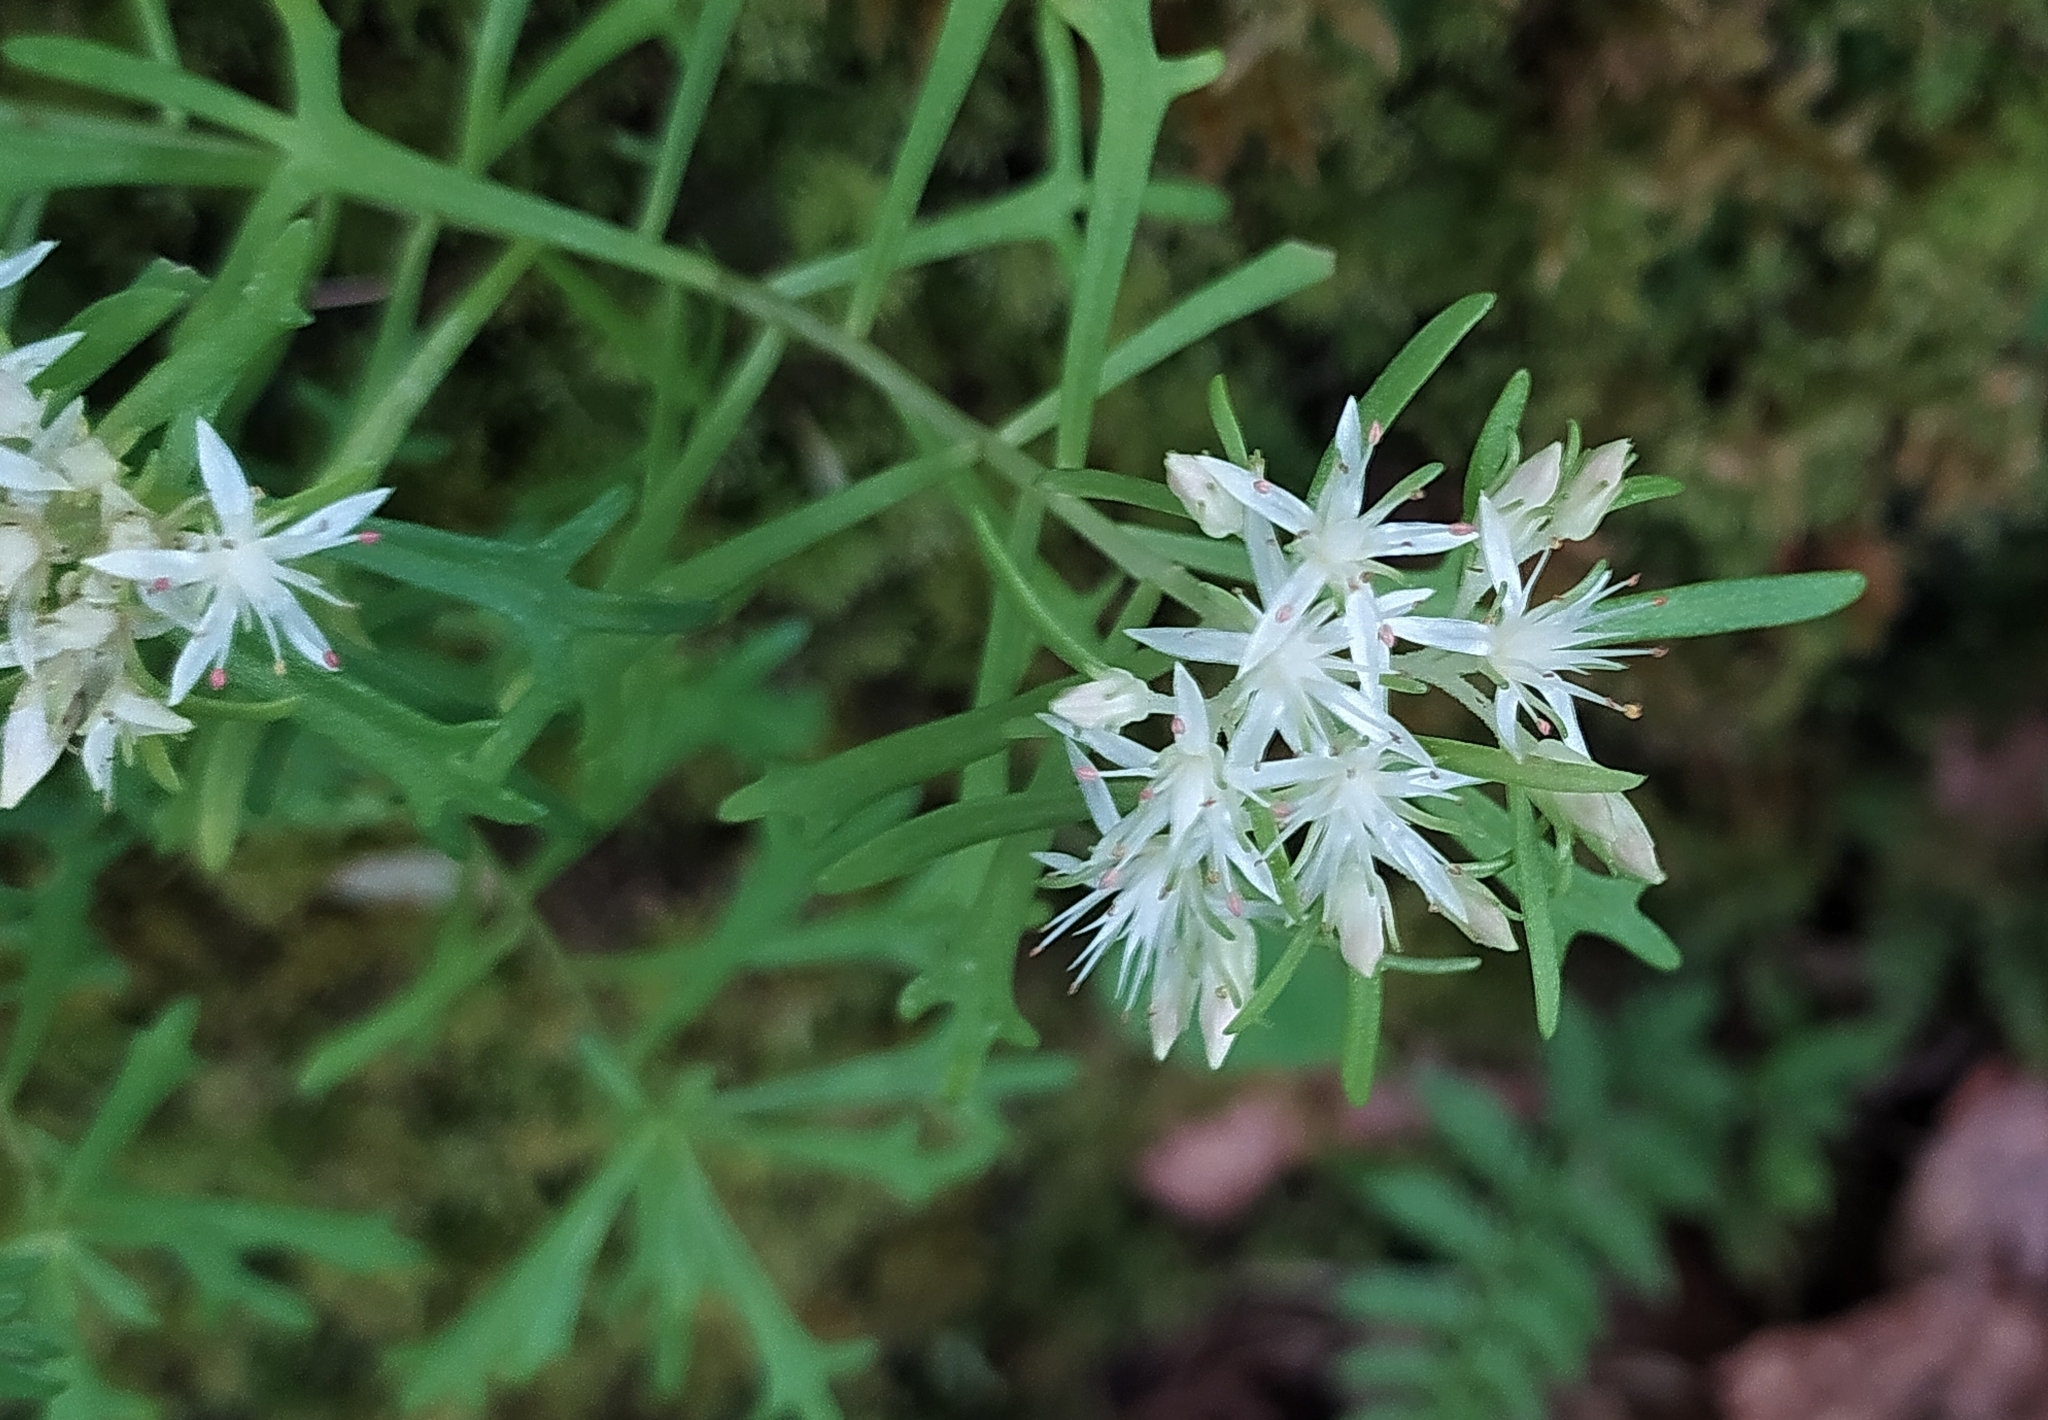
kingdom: Plantae
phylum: Tracheophyta
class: Magnoliopsida
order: Saxifragales
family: Crassulaceae
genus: Rhodiola
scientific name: Rhodiola sinuata
